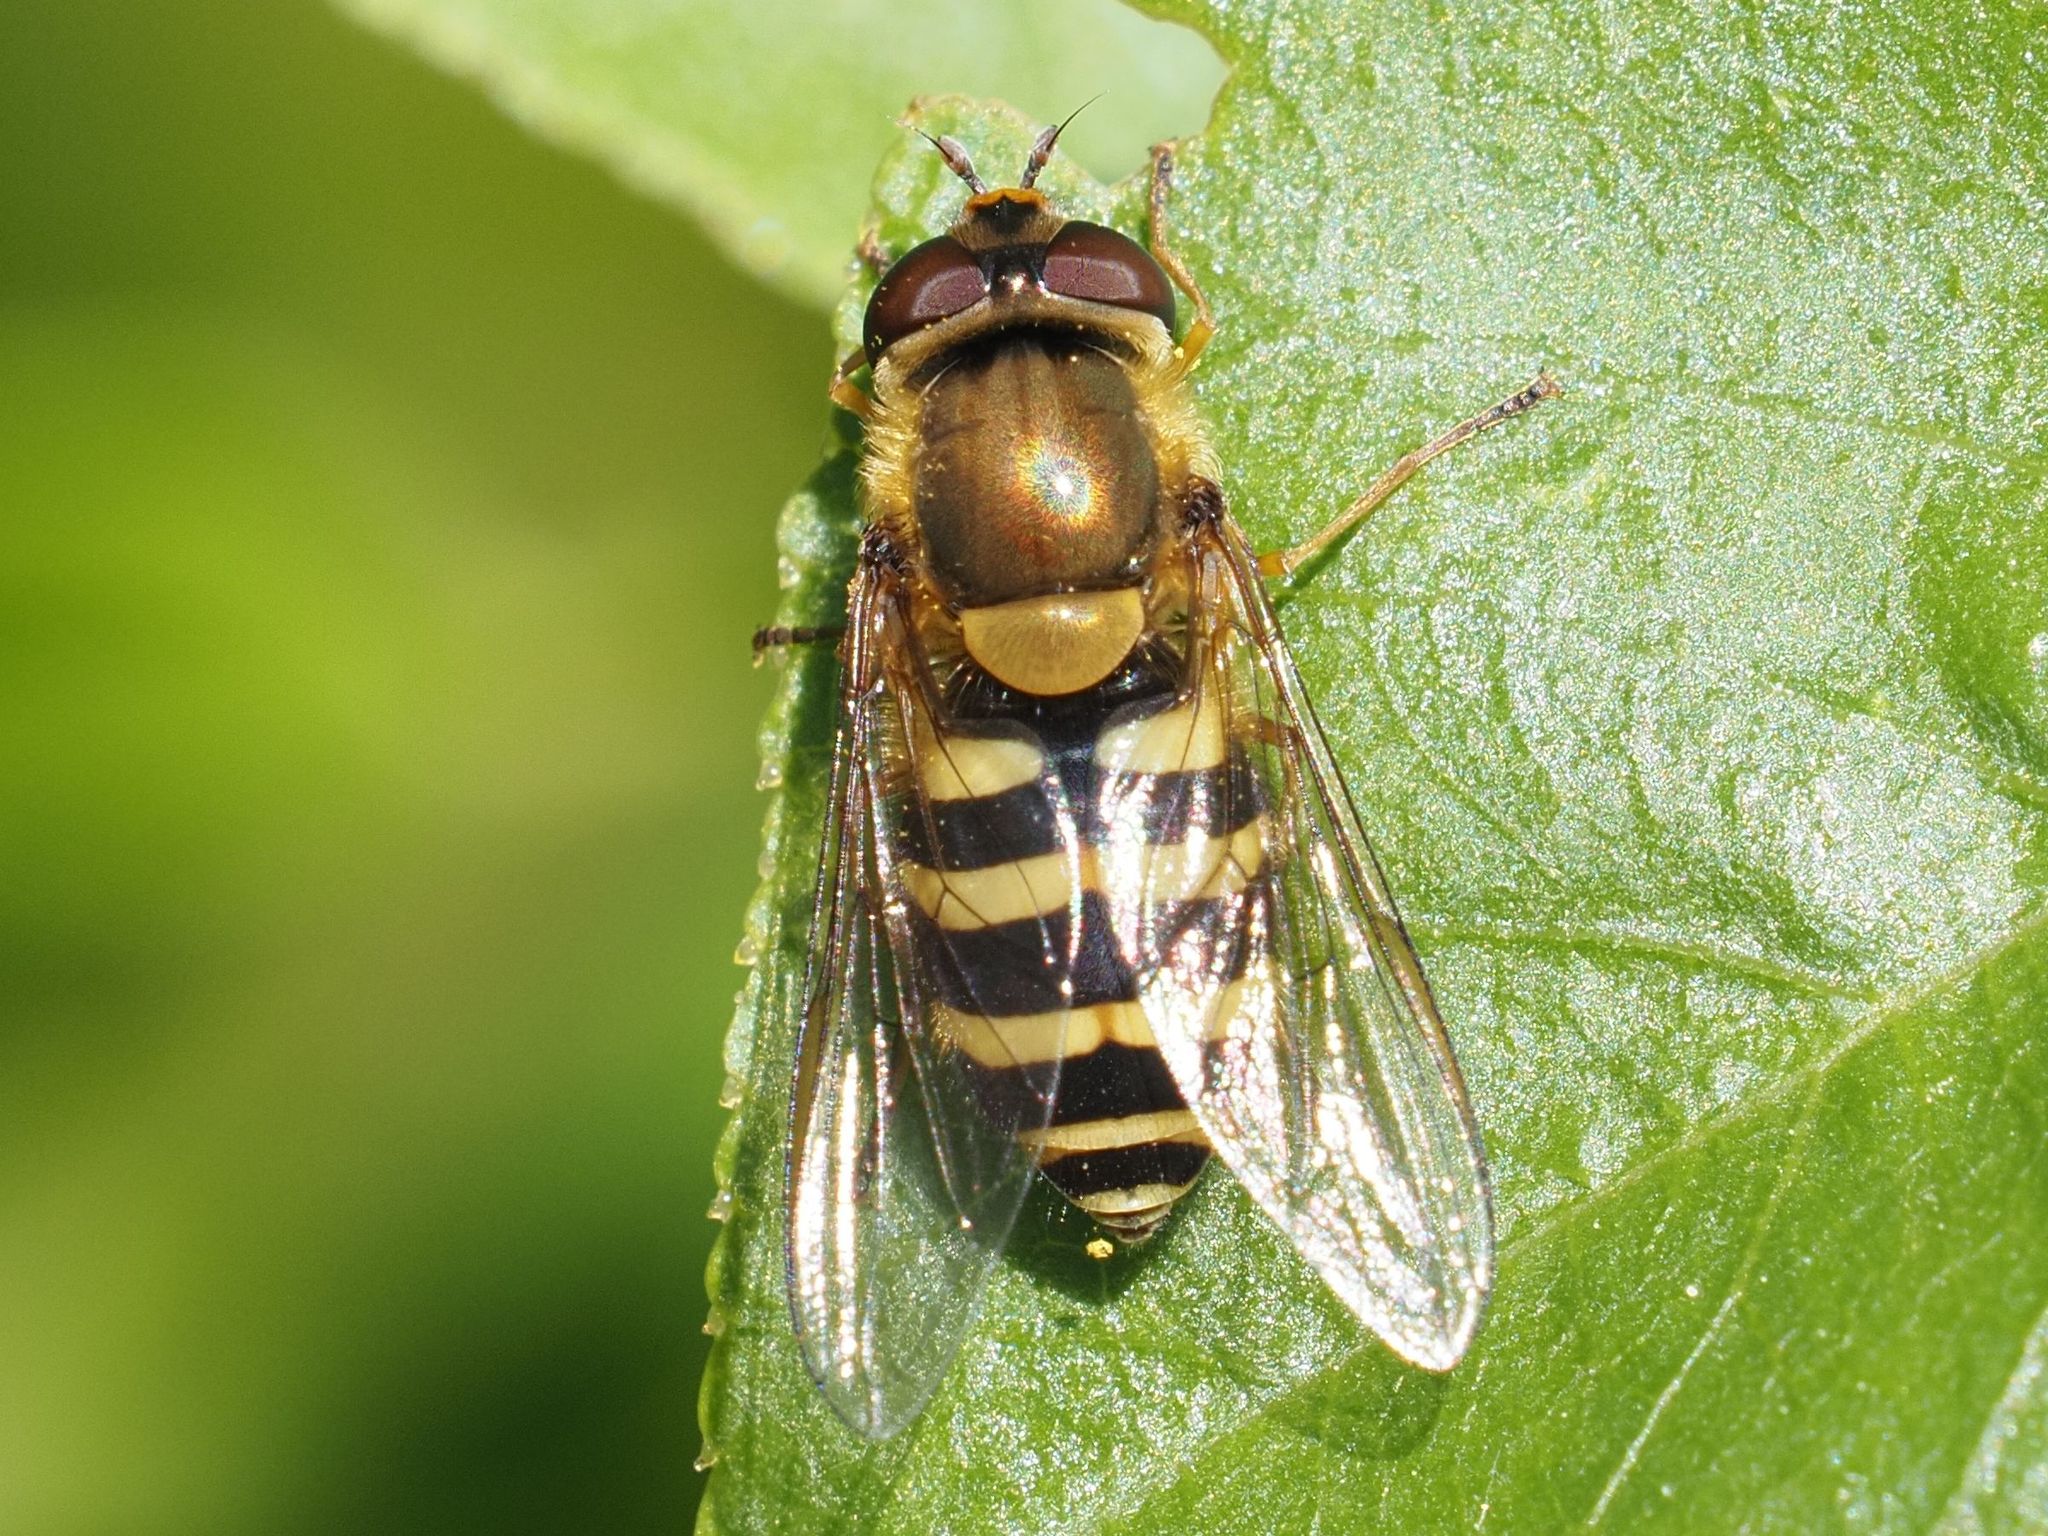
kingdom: Animalia
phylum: Arthropoda
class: Insecta
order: Diptera
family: Syrphidae
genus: Syrphus
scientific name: Syrphus
